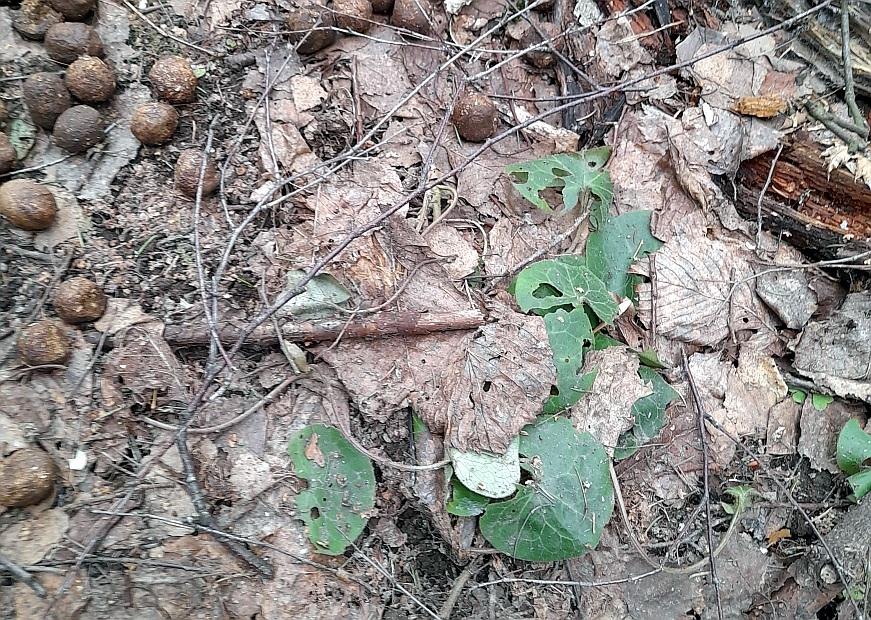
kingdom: Plantae
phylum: Tracheophyta
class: Magnoliopsida
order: Piperales
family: Aristolochiaceae
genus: Asarum
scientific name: Asarum europaeum
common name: Asarabacca
